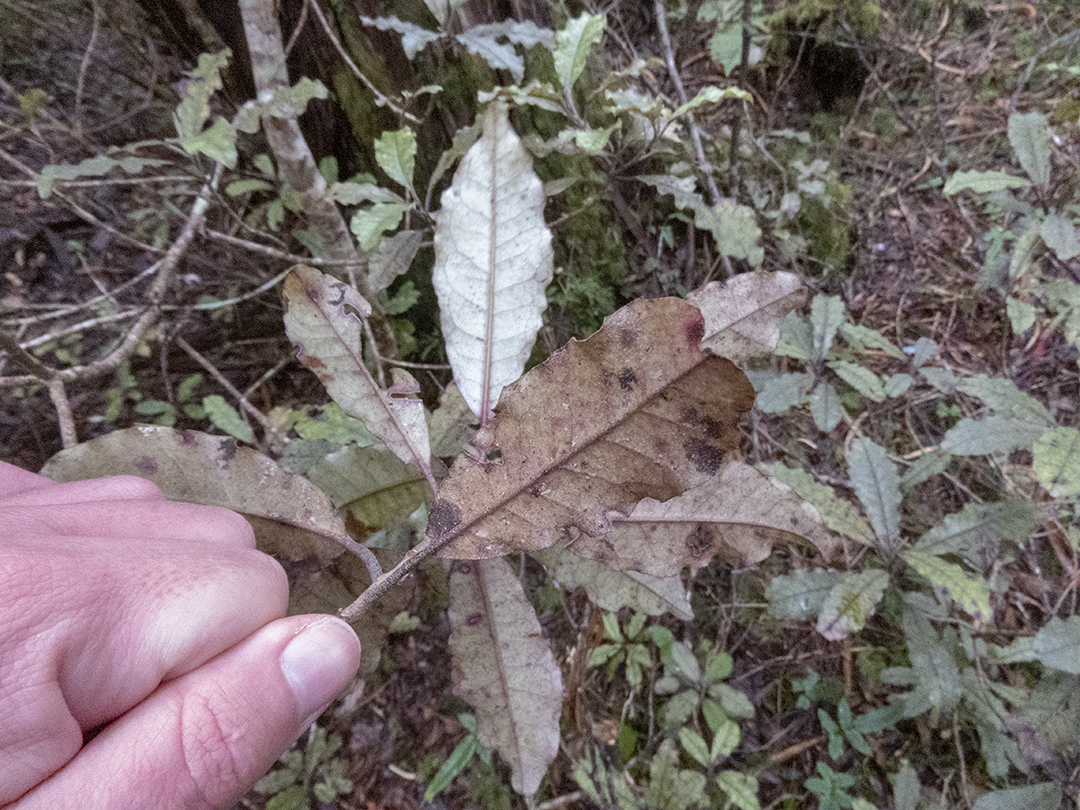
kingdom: Plantae
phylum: Tracheophyta
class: Magnoliopsida
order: Paracryphiales
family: Paracryphiaceae
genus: Quintinia
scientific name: Quintinia serrata
